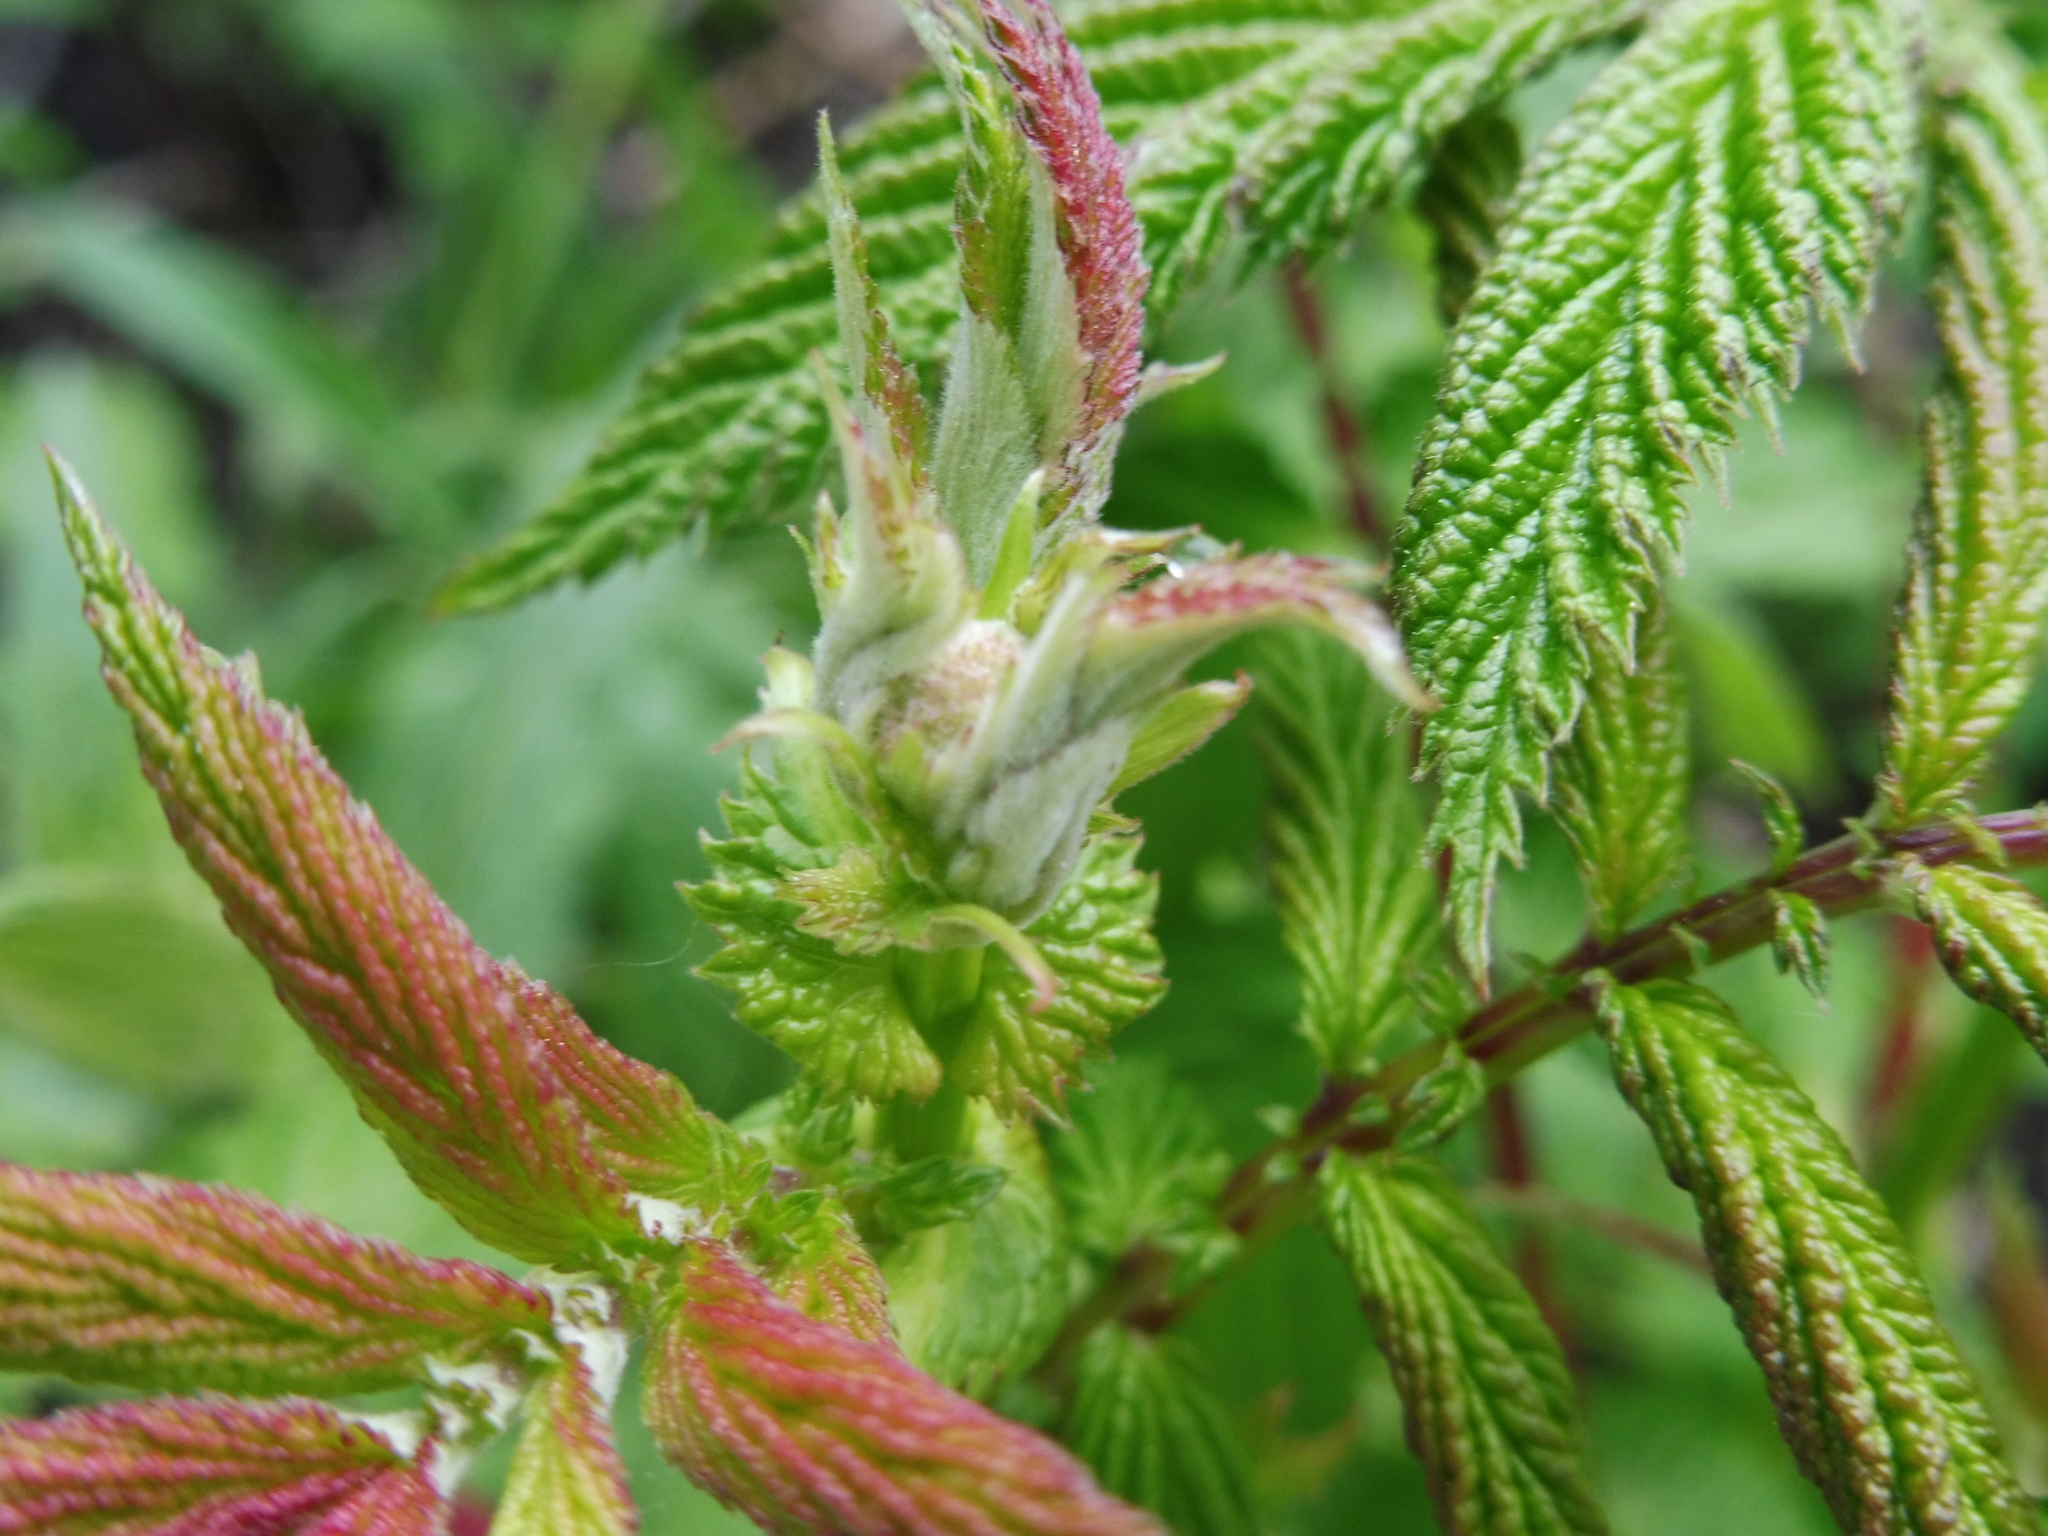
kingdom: Plantae
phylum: Tracheophyta
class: Magnoliopsida
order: Rosales
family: Rosaceae
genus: Filipendula
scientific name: Filipendula ulmaria
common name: Meadowsweet
